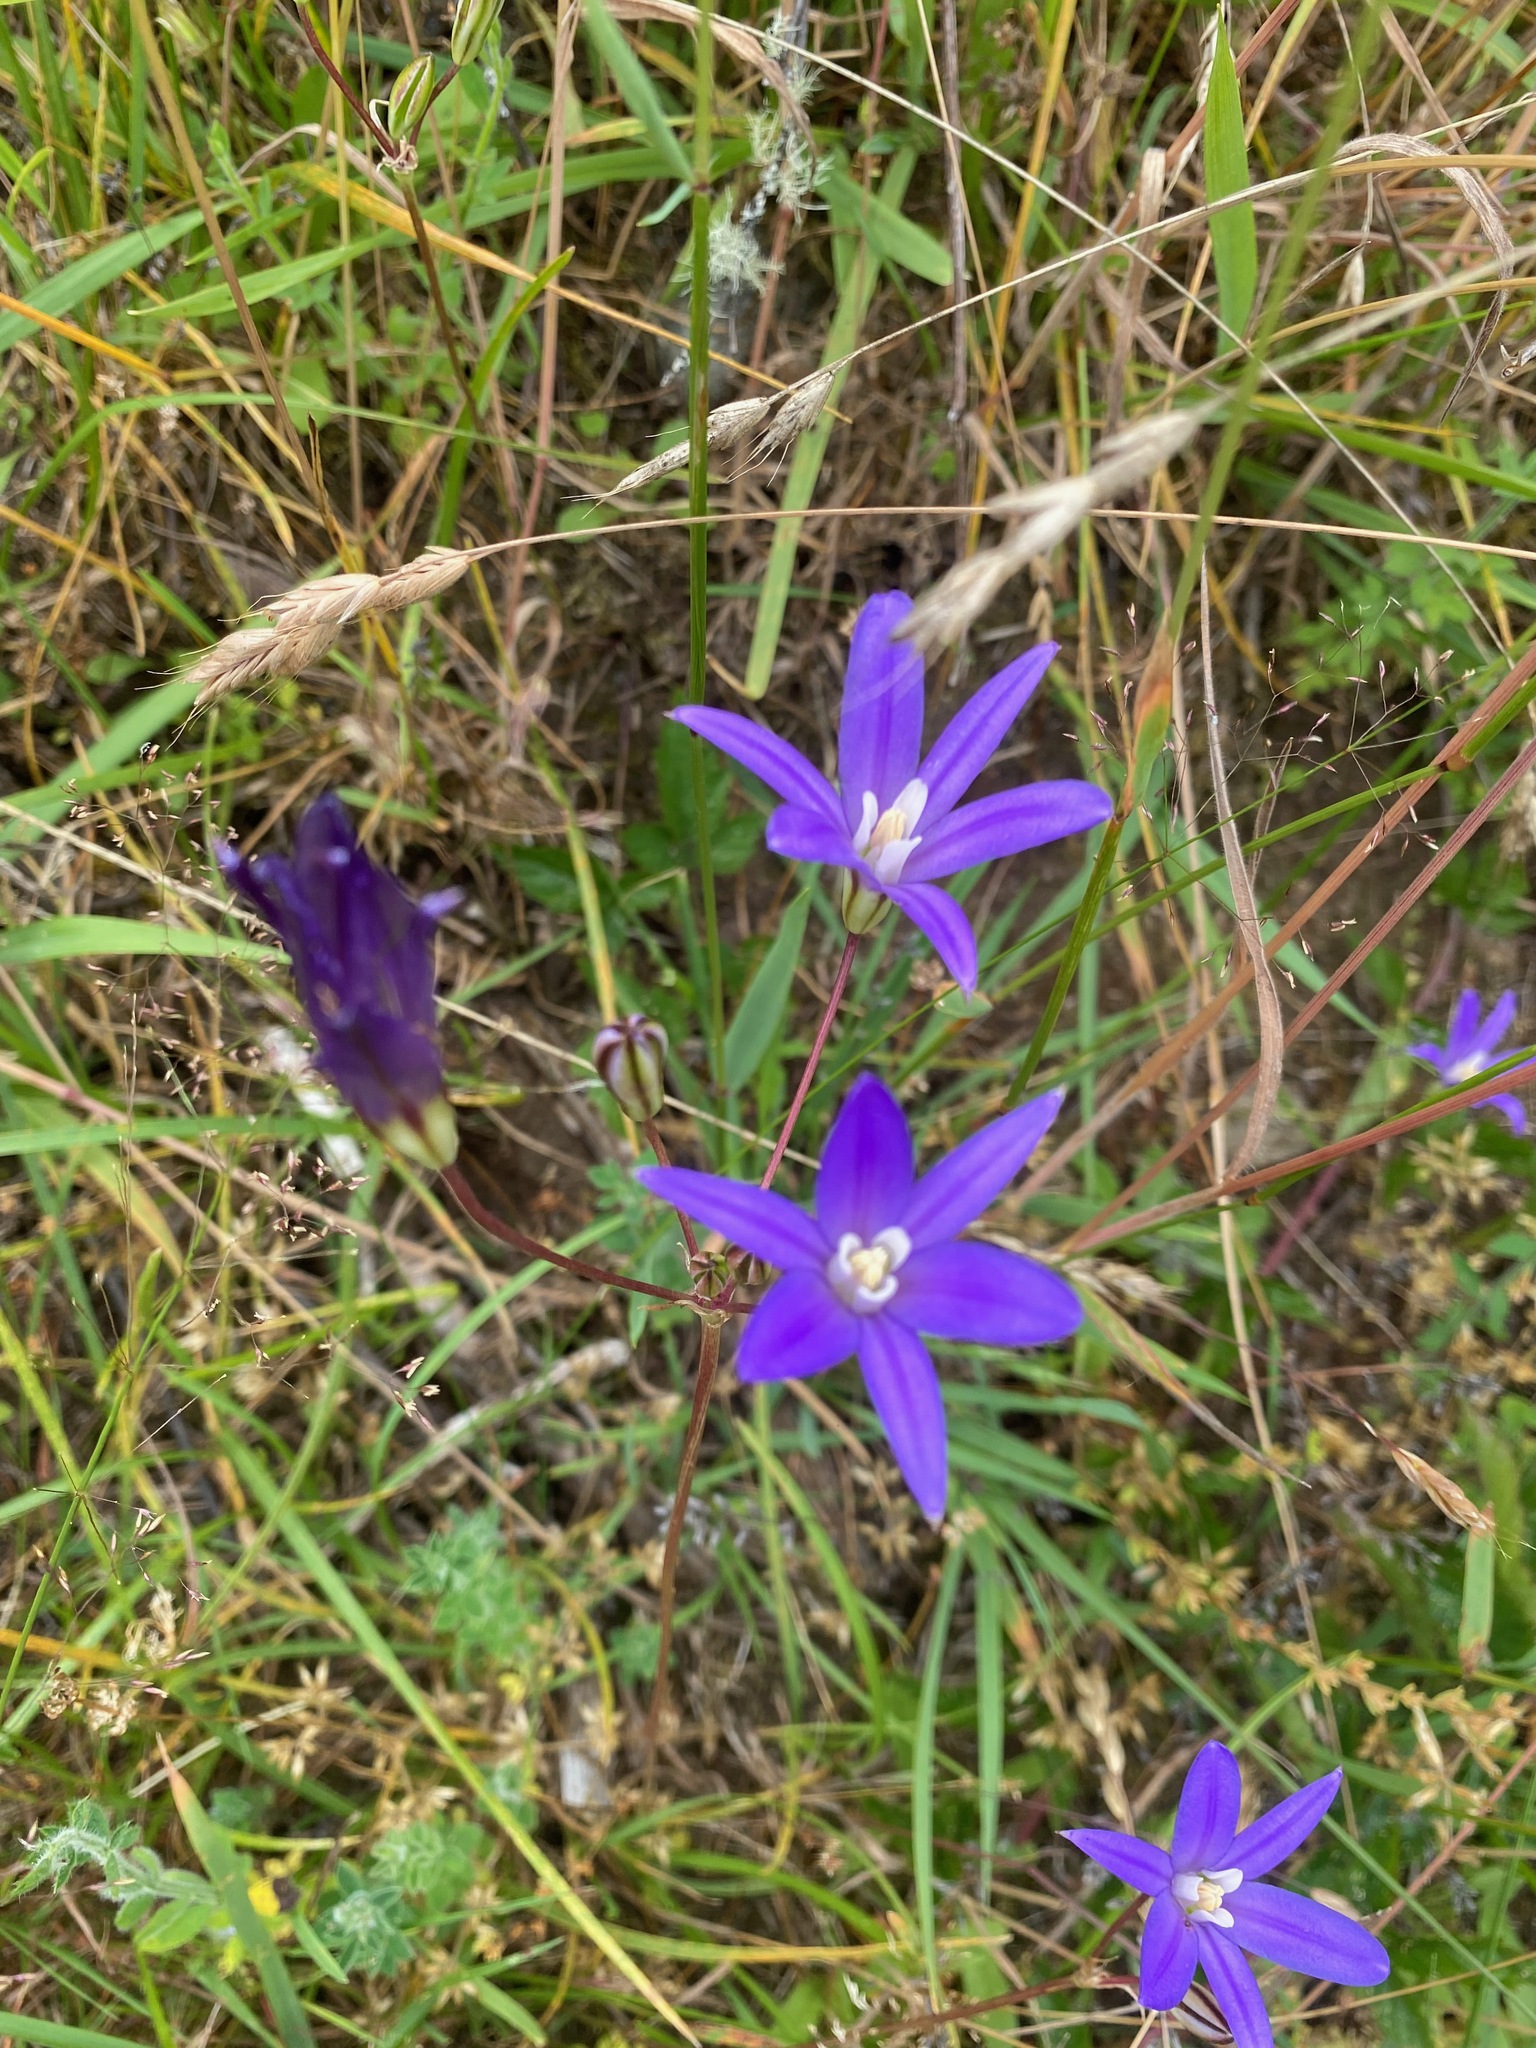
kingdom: Plantae
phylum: Tracheophyta
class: Liliopsida
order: Asparagales
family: Asparagaceae
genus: Brodiaea
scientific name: Brodiaea coronaria
